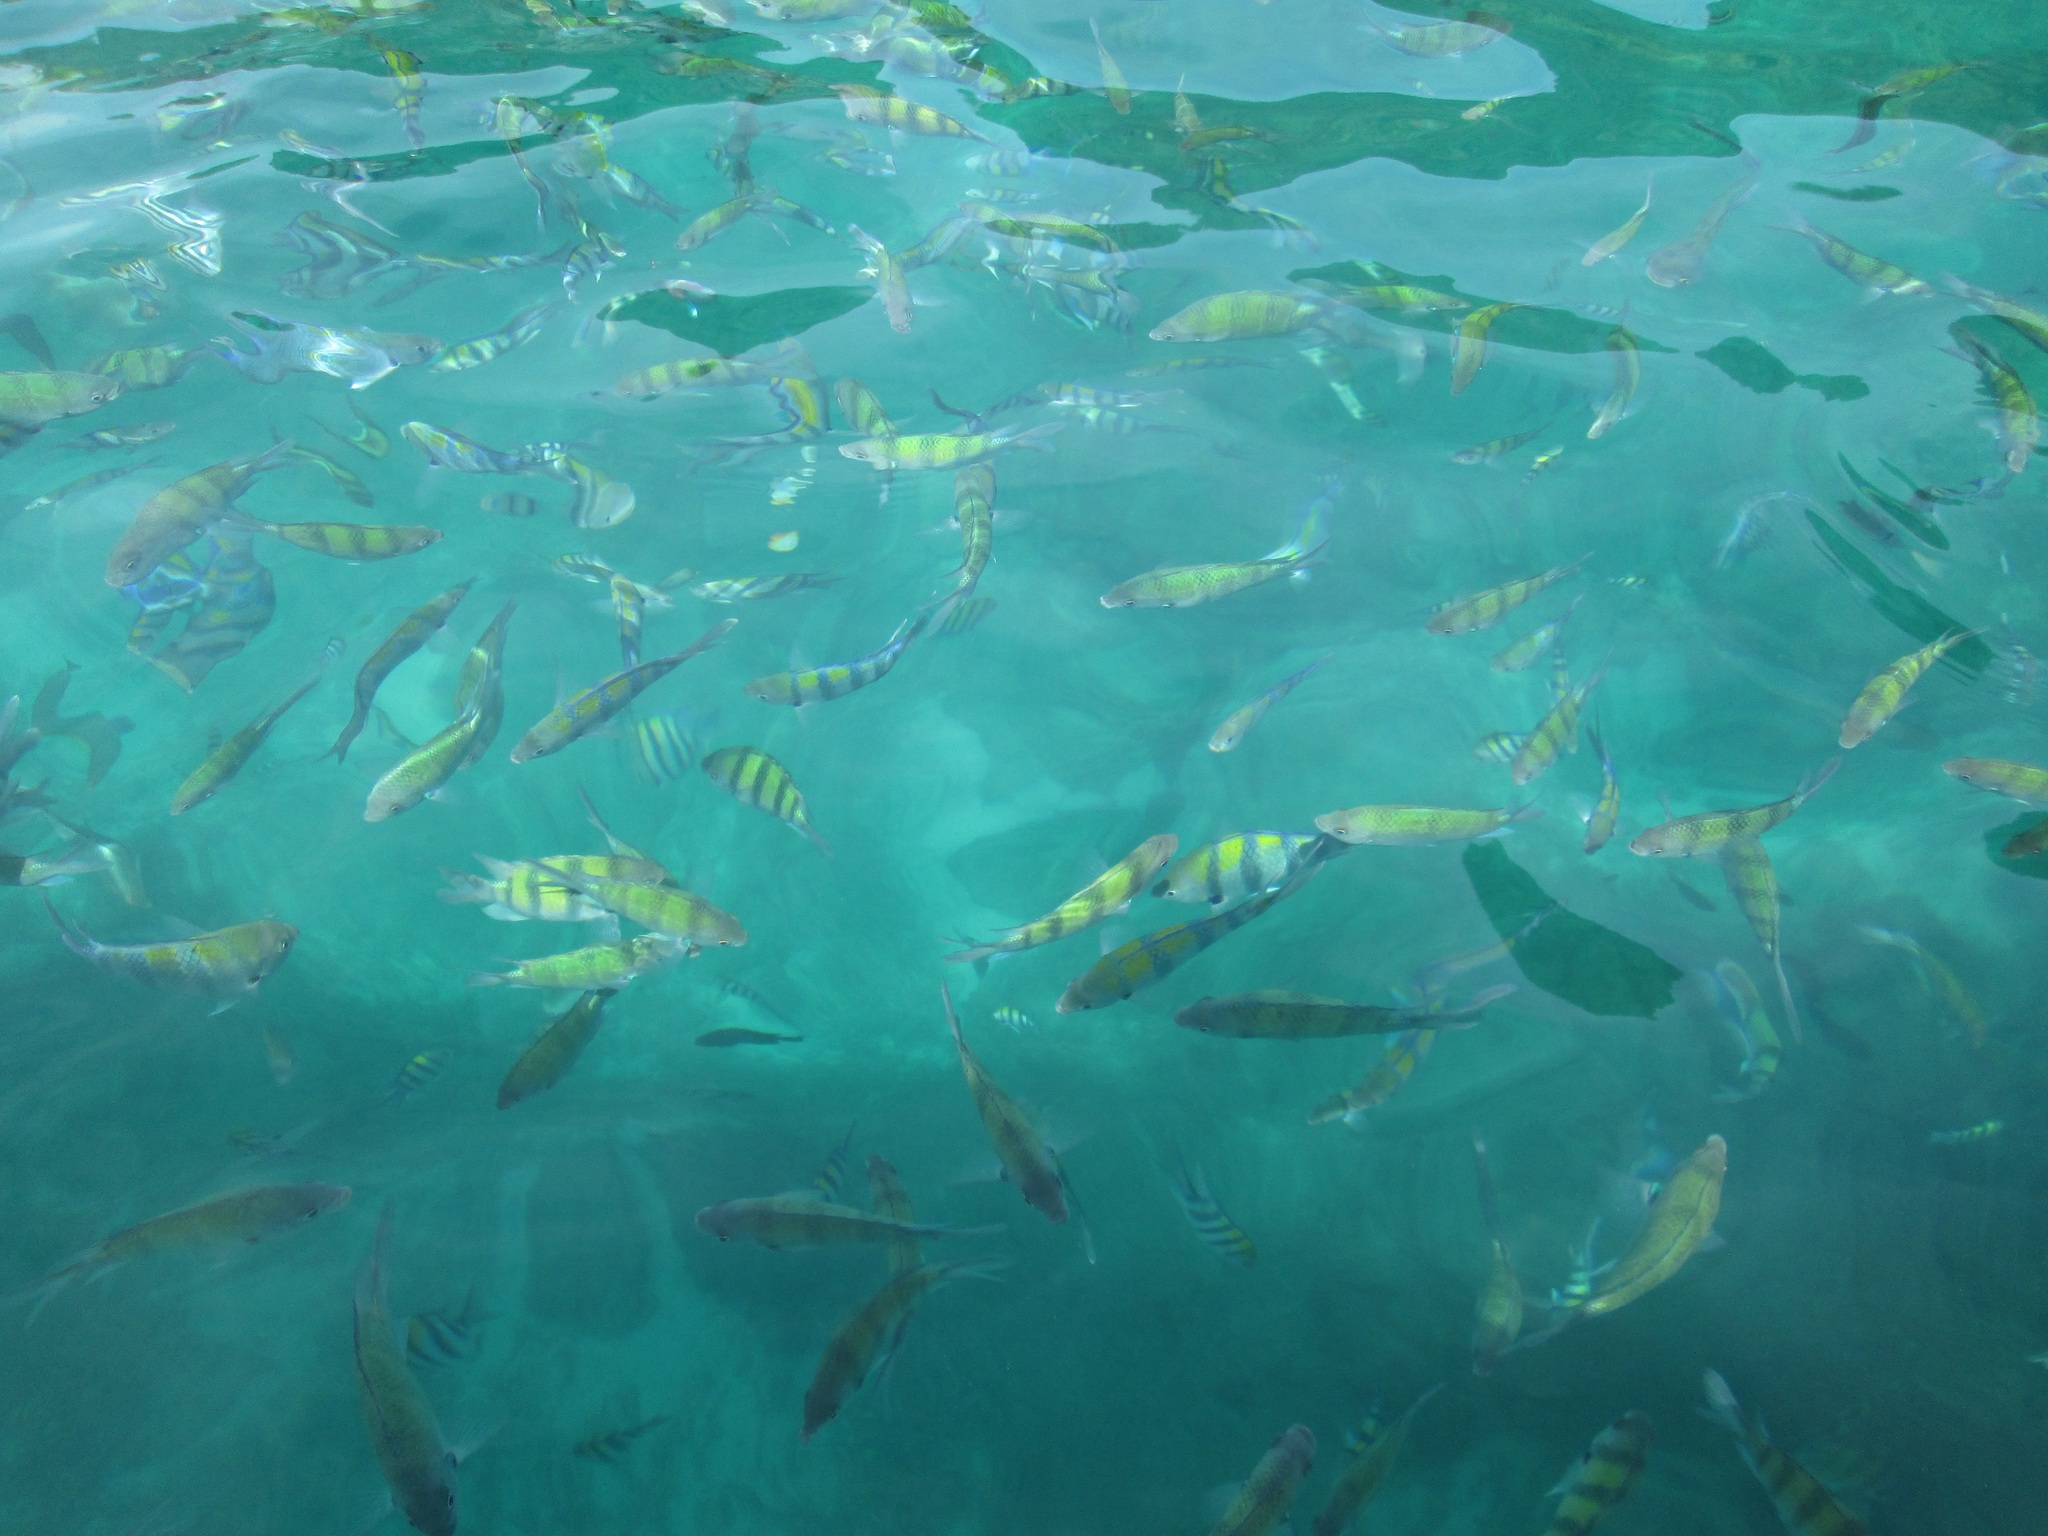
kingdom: Animalia
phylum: Chordata
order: Perciformes
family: Pomacentridae
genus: Abudefduf
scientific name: Abudefduf vaigiensis
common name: Indo-pacific sergeant
